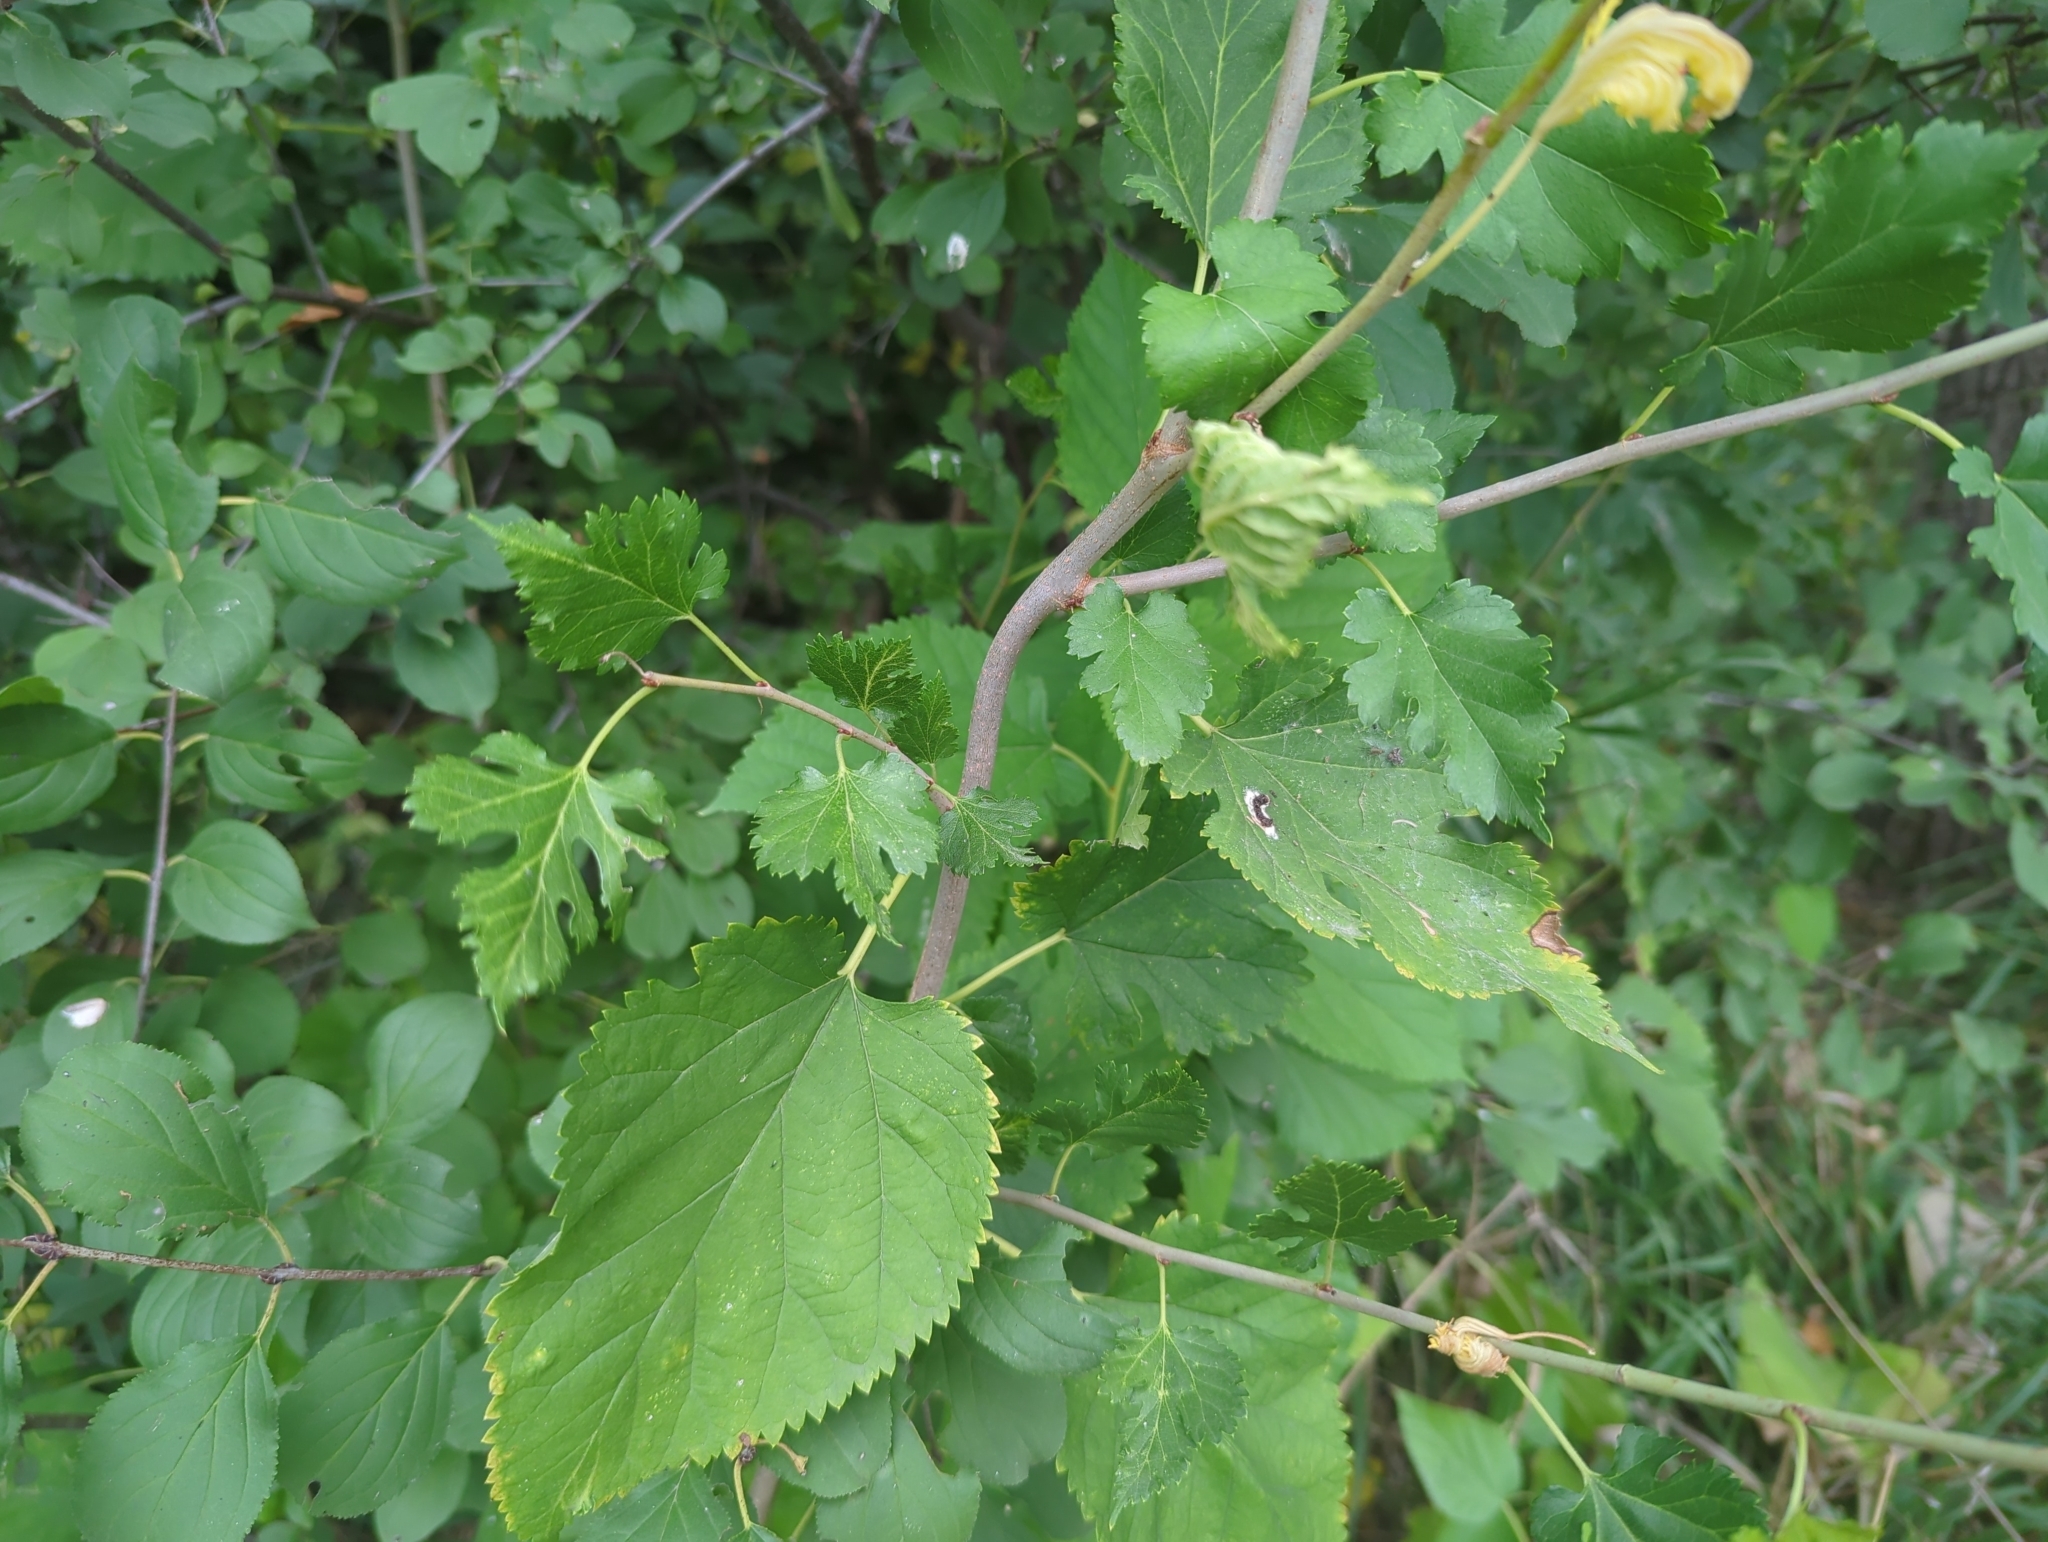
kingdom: Plantae
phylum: Tracheophyta
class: Magnoliopsida
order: Rosales
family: Moraceae
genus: Morus
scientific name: Morus alba
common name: White mulberry
